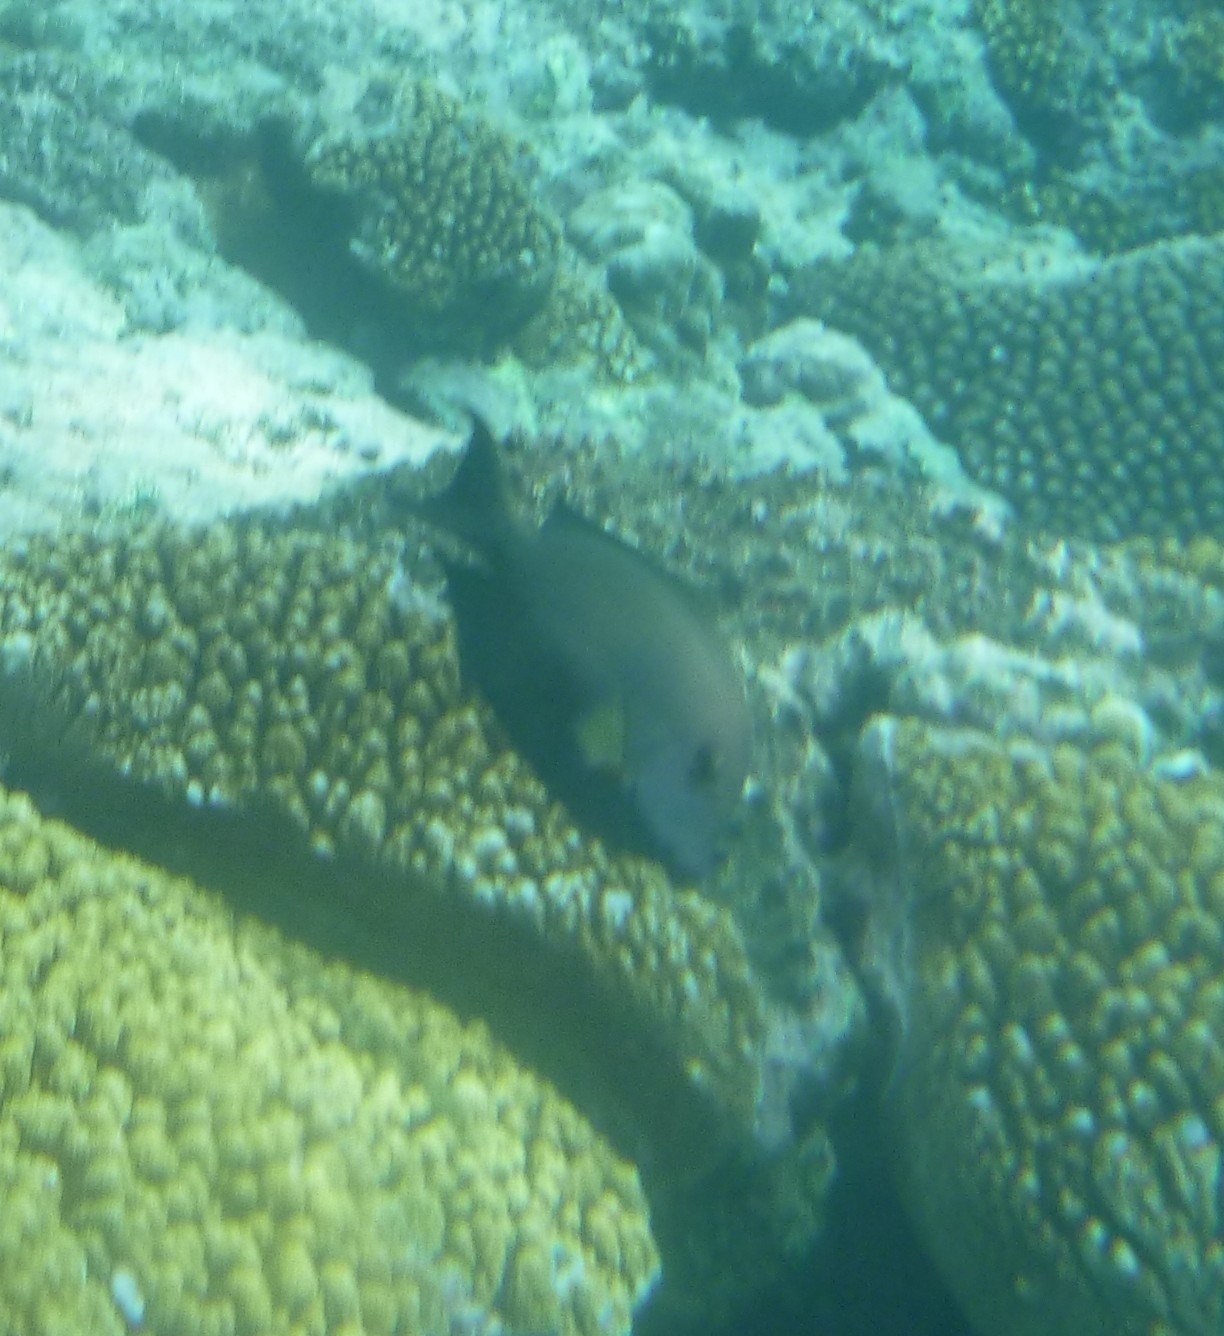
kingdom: Animalia
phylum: Chordata
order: Perciformes
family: Acanthuridae
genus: Acanthurus
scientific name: Acanthurus nigrofuscus
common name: Blackspot surgeonfish
